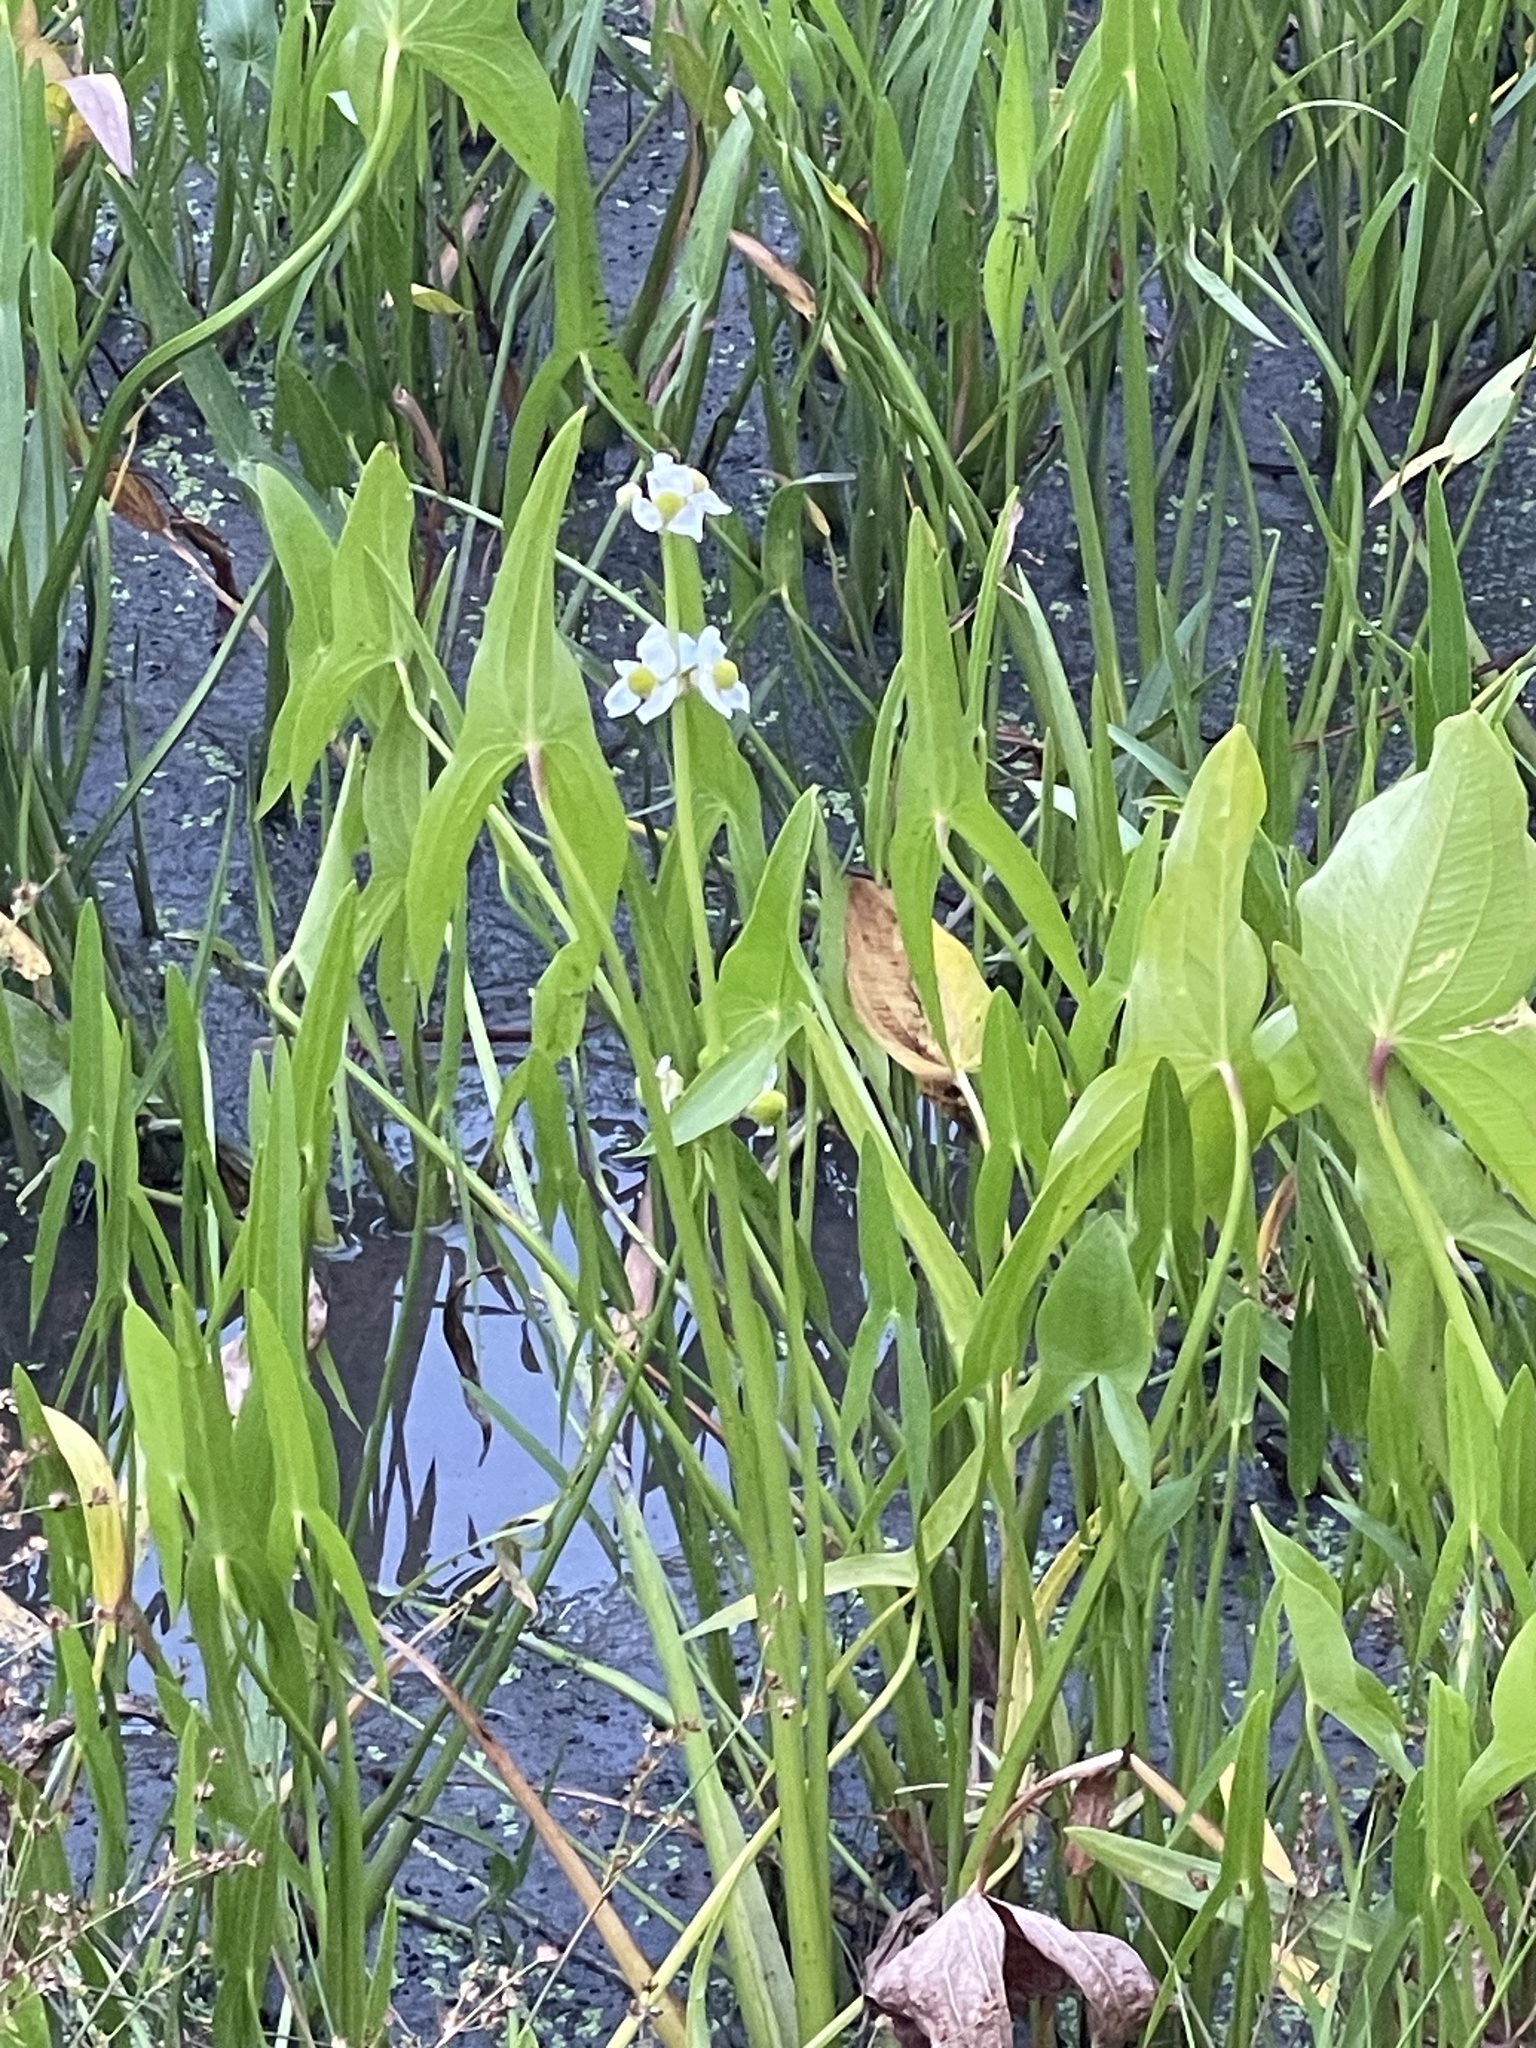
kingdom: Plantae
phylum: Tracheophyta
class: Liliopsida
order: Alismatales
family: Alismataceae
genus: Sagittaria
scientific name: Sagittaria latifolia
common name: Duck-potato
